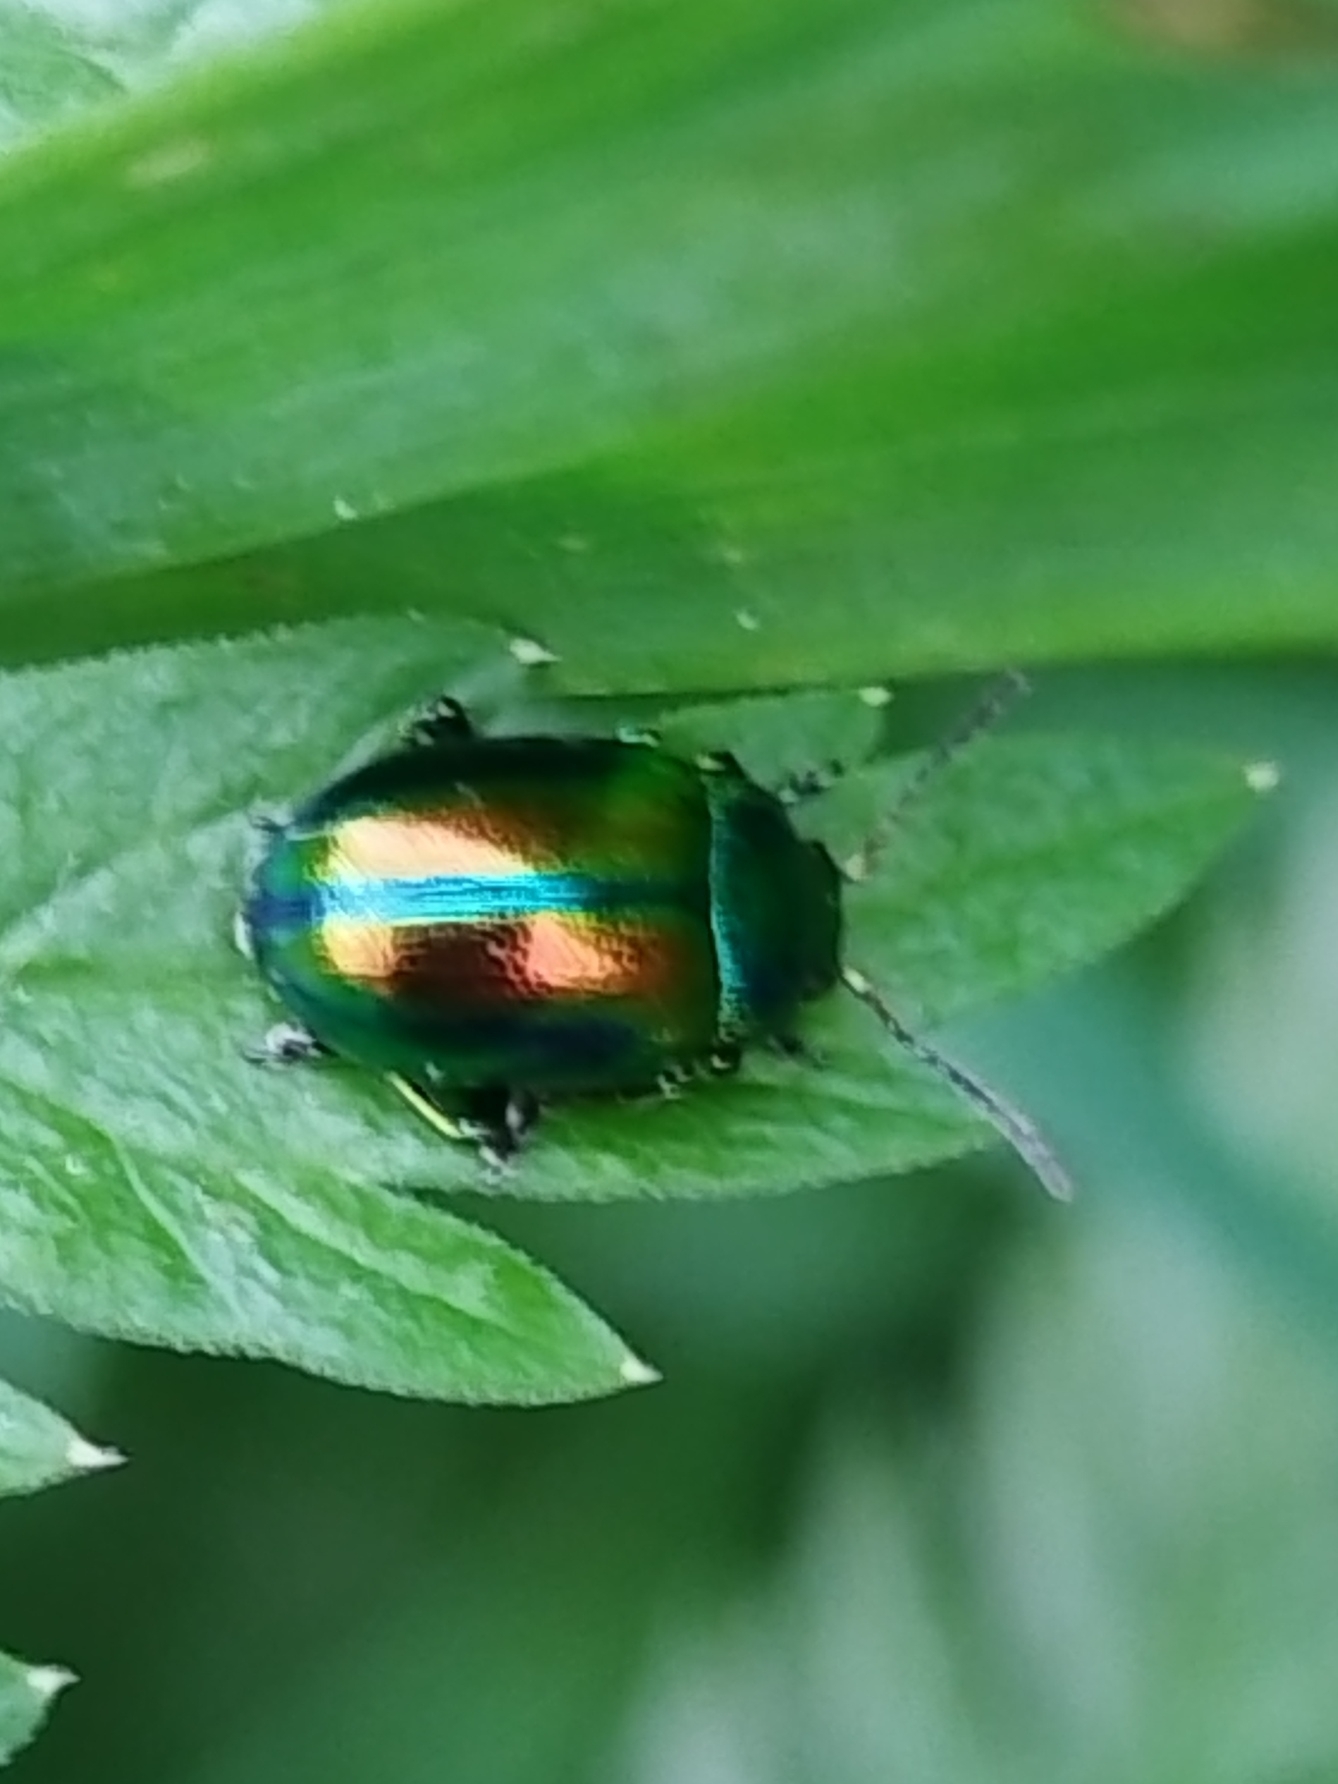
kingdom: Animalia
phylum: Arthropoda
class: Insecta
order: Coleoptera
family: Chrysomelidae
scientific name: Chrysomelidae
